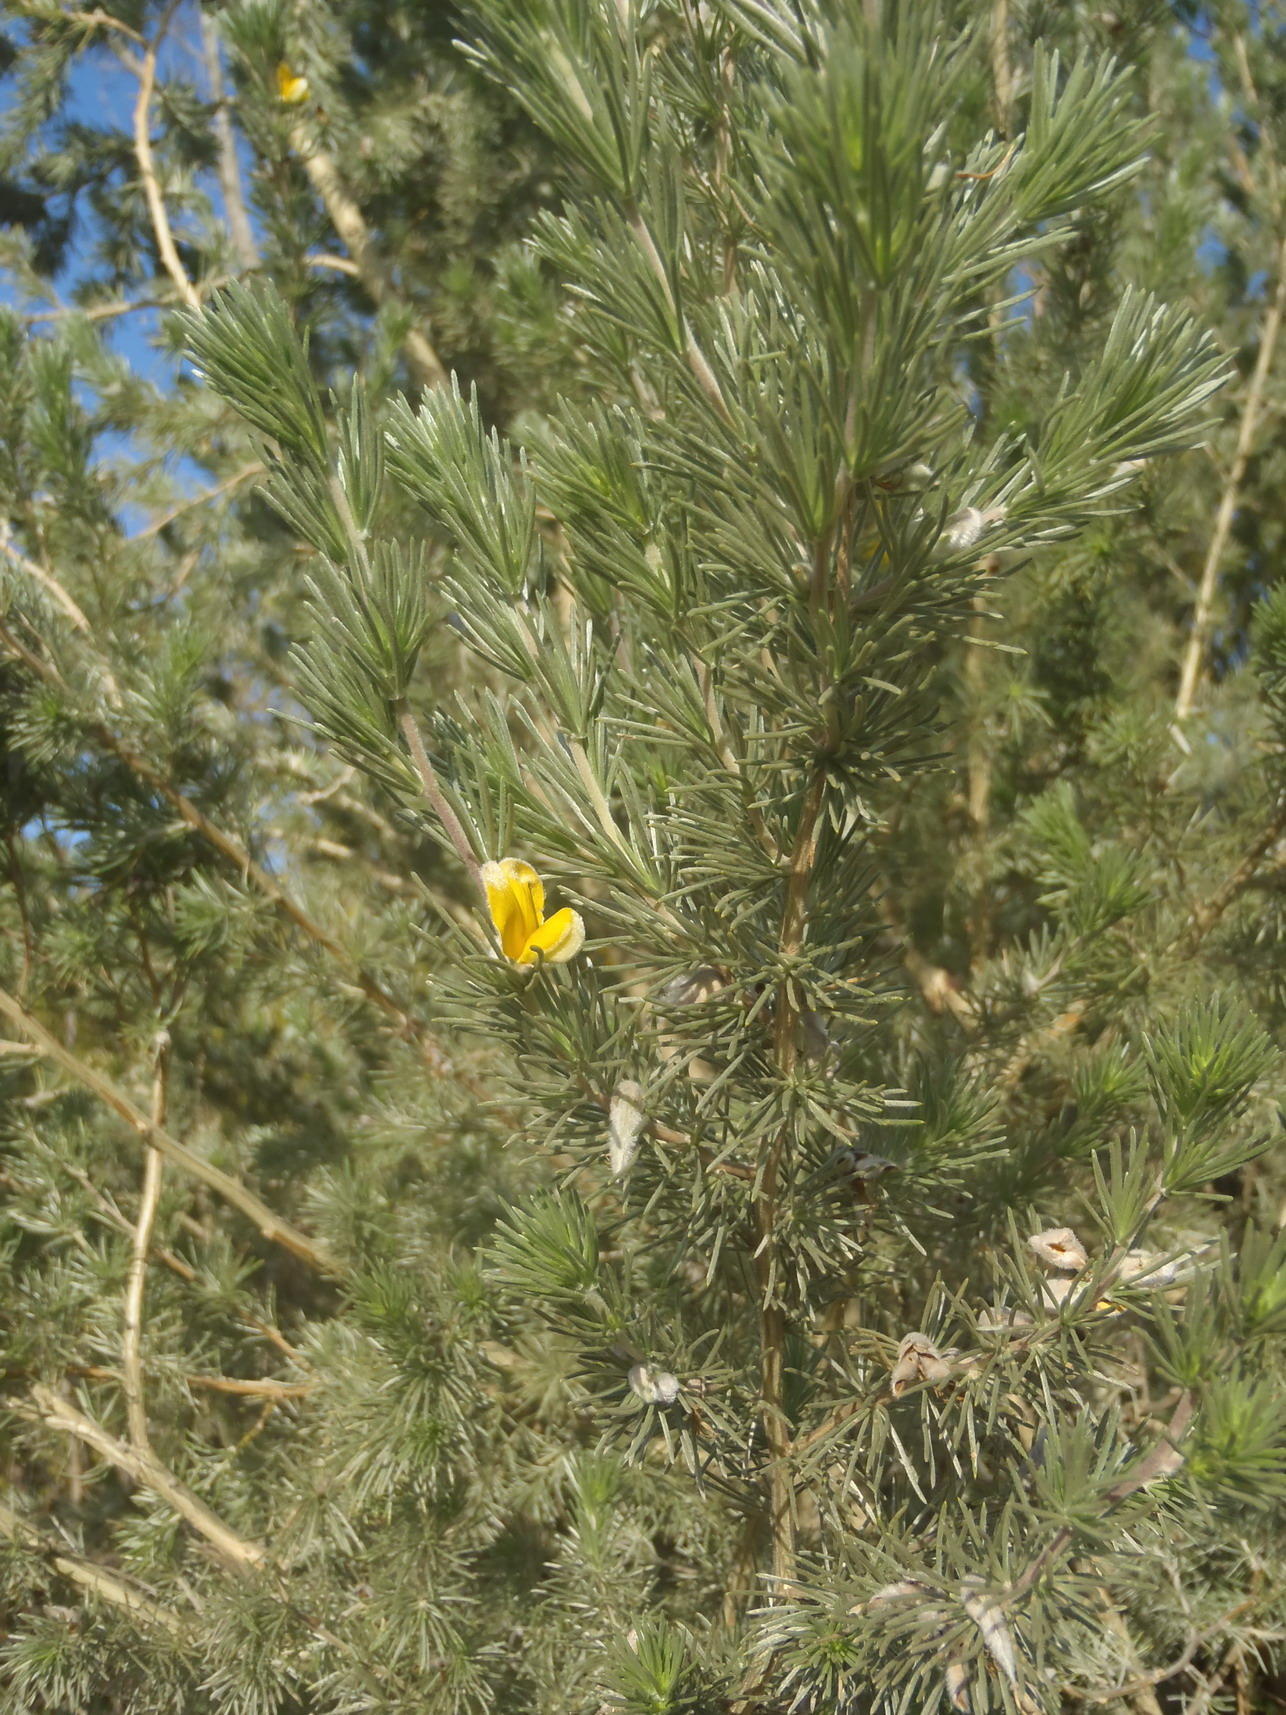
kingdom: Plantae
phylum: Tracheophyta
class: Magnoliopsida
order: Fabales
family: Fabaceae
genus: Aspalathus
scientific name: Aspalathus kougaensis
